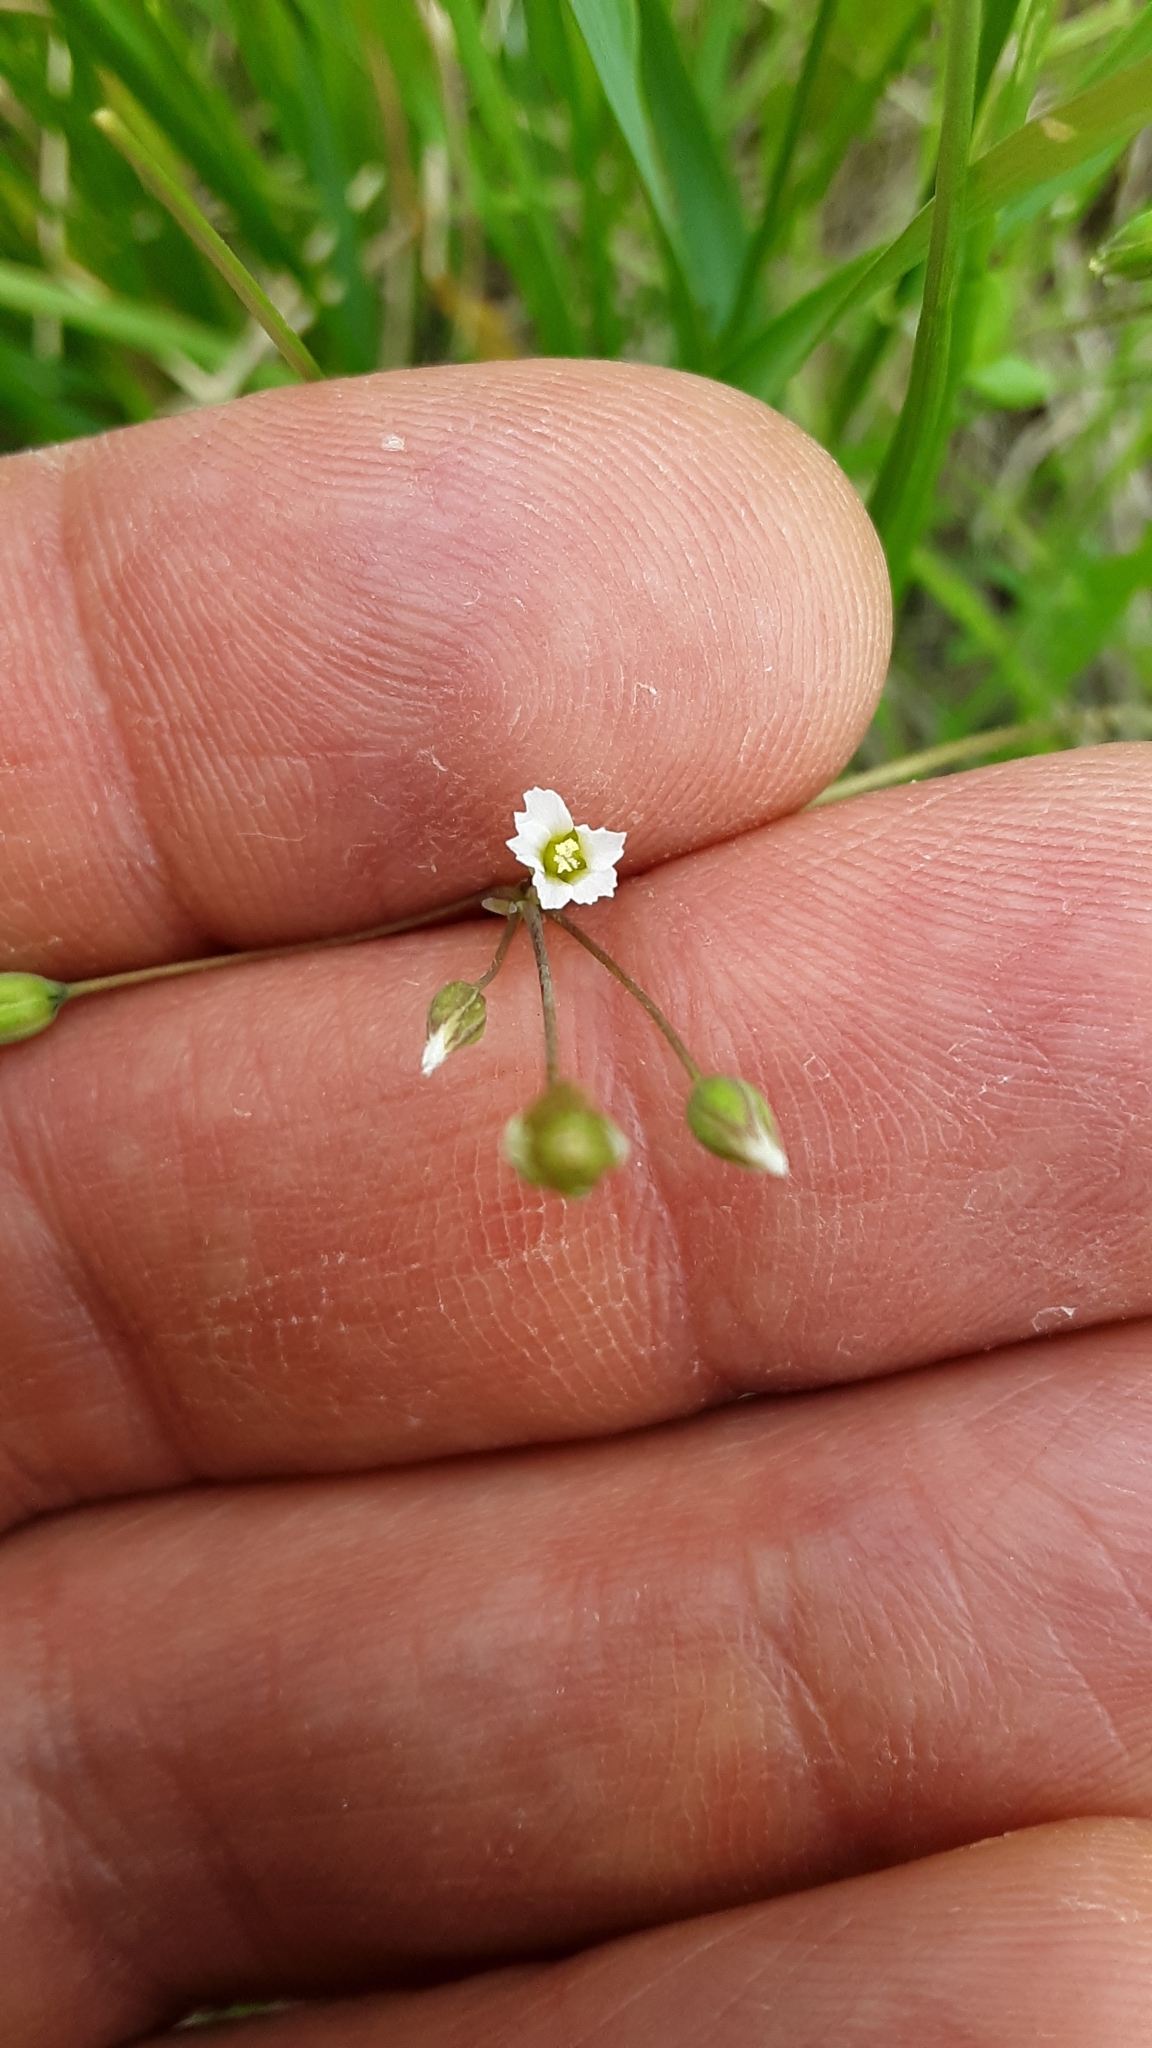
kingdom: Plantae
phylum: Tracheophyta
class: Magnoliopsida
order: Caryophyllales
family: Caryophyllaceae
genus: Holosteum
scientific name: Holosteum umbellatum
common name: Jagged chickweed
